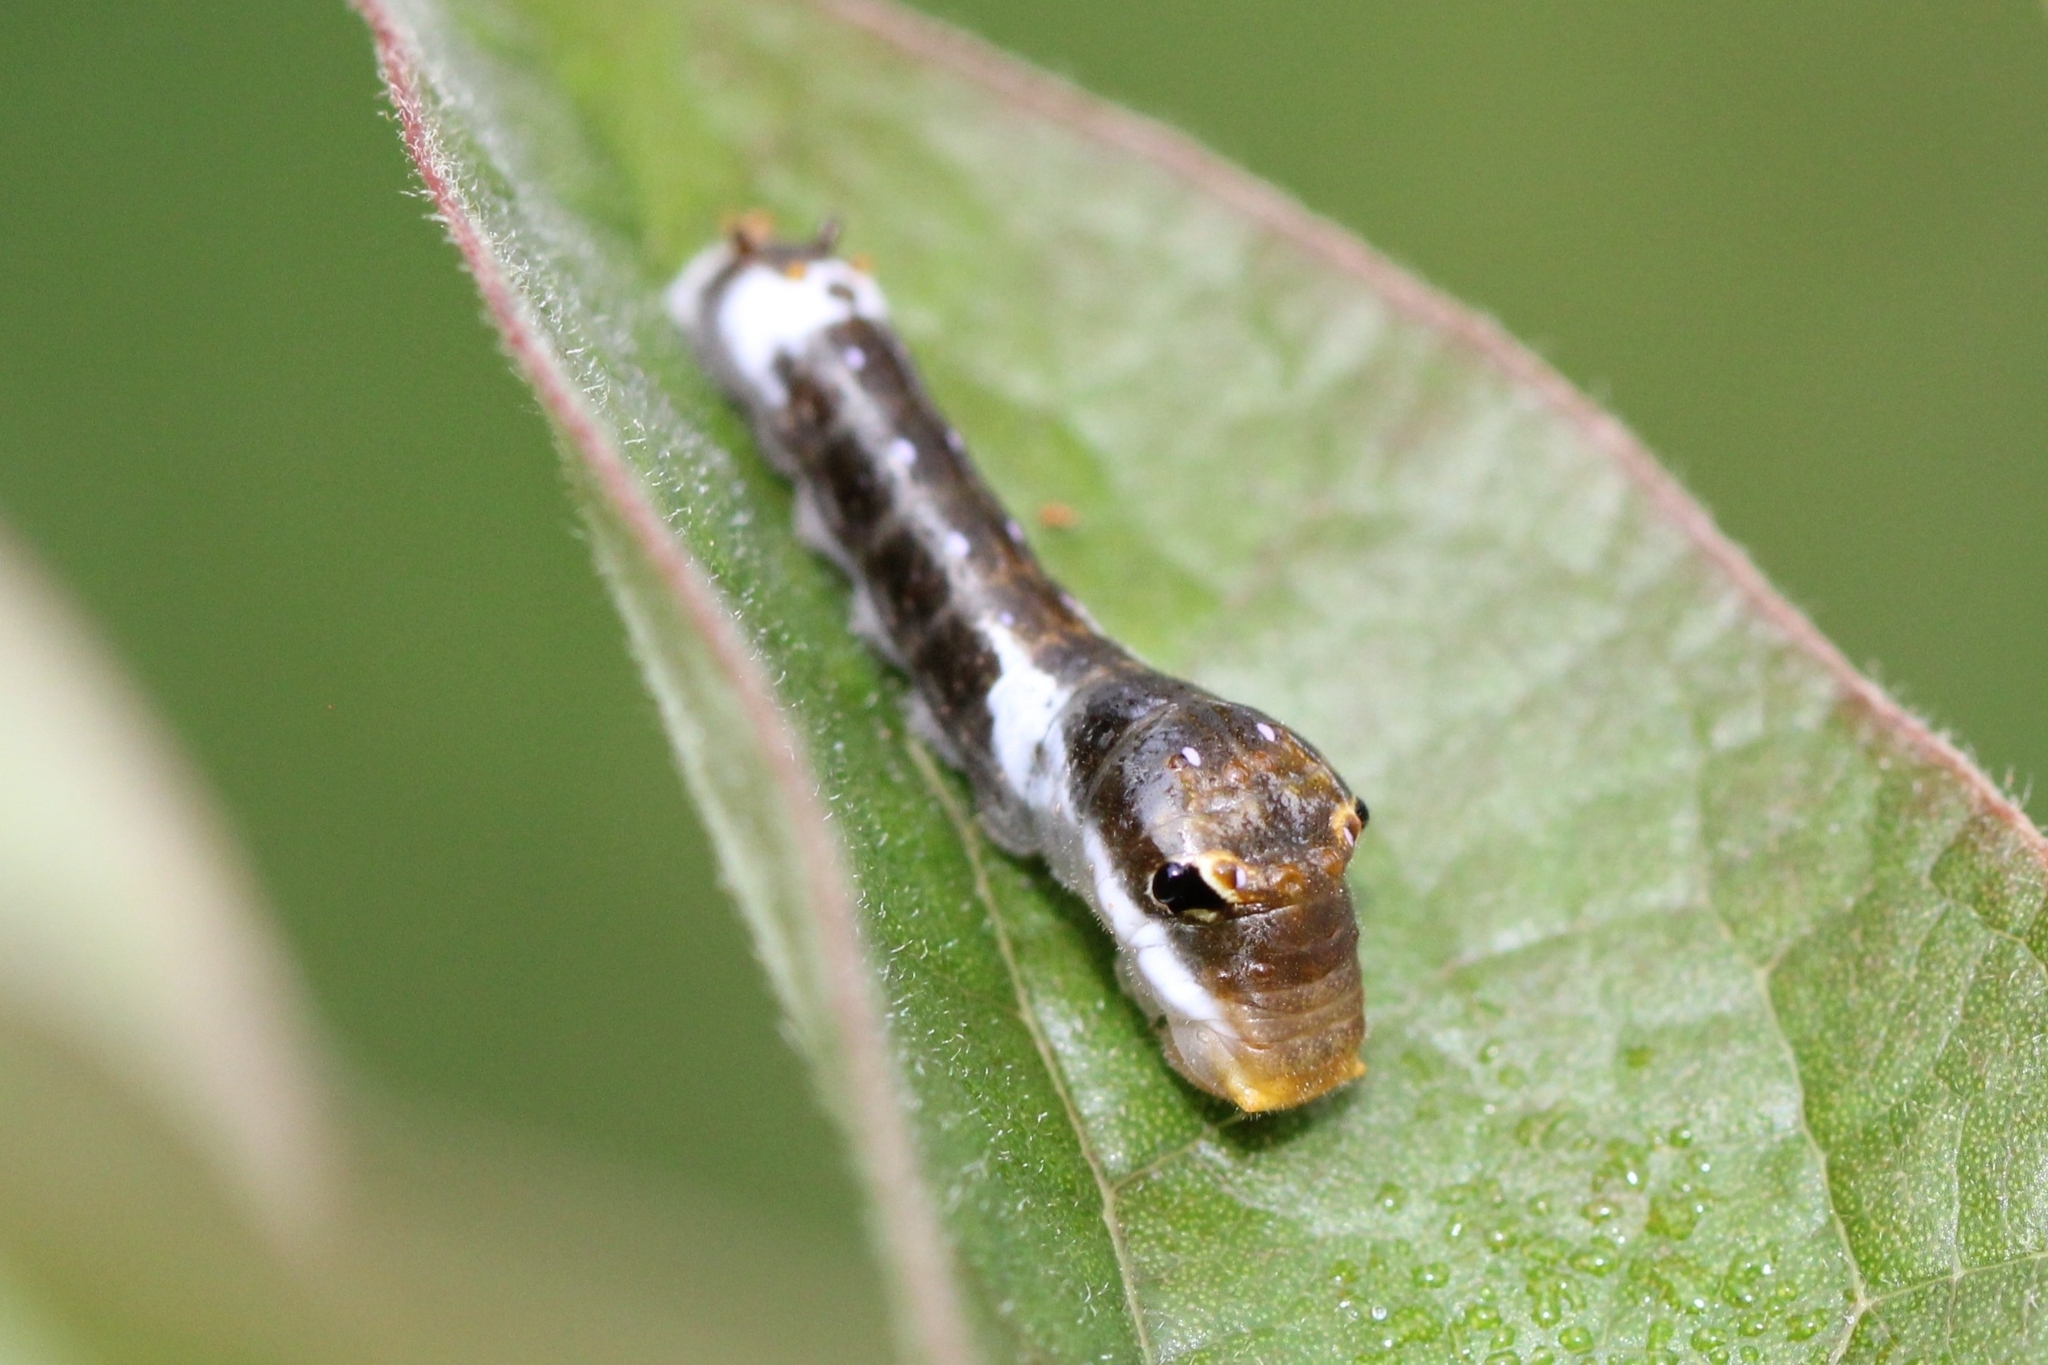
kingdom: Animalia
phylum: Arthropoda
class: Insecta
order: Lepidoptera
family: Papilionidae
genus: Papilio
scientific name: Papilio troilus
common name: Spicebush swallowtail
